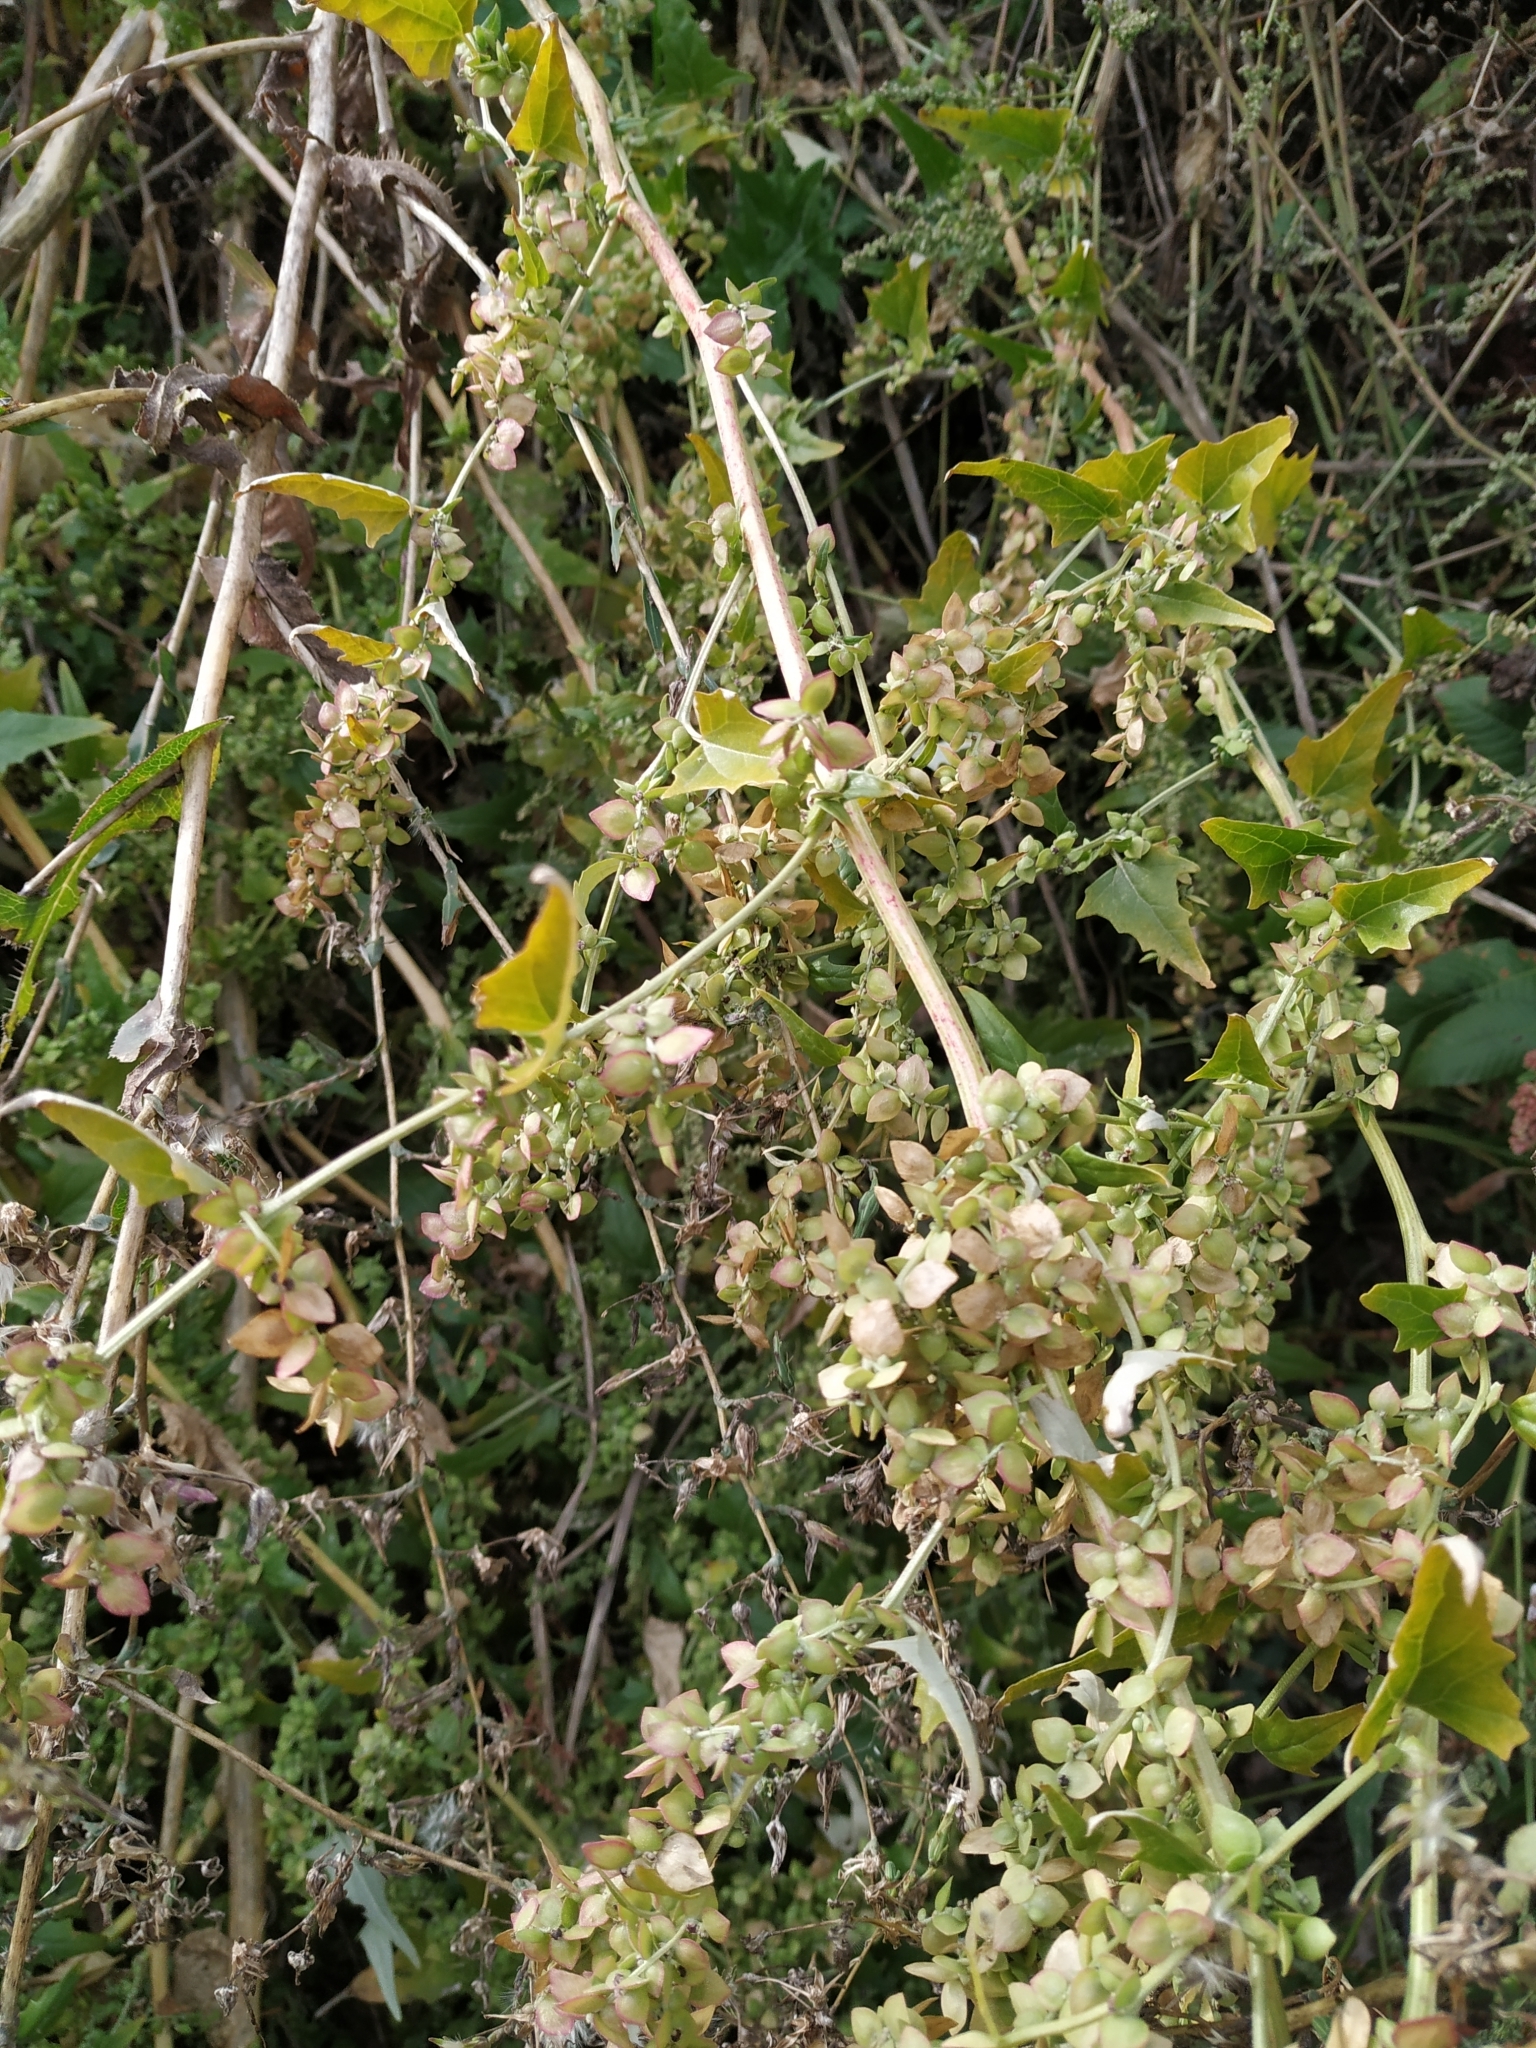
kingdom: Plantae
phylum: Tracheophyta
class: Magnoliopsida
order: Caryophyllales
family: Amaranthaceae
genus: Atriplex
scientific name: Atriplex sagittata
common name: Purple orache
